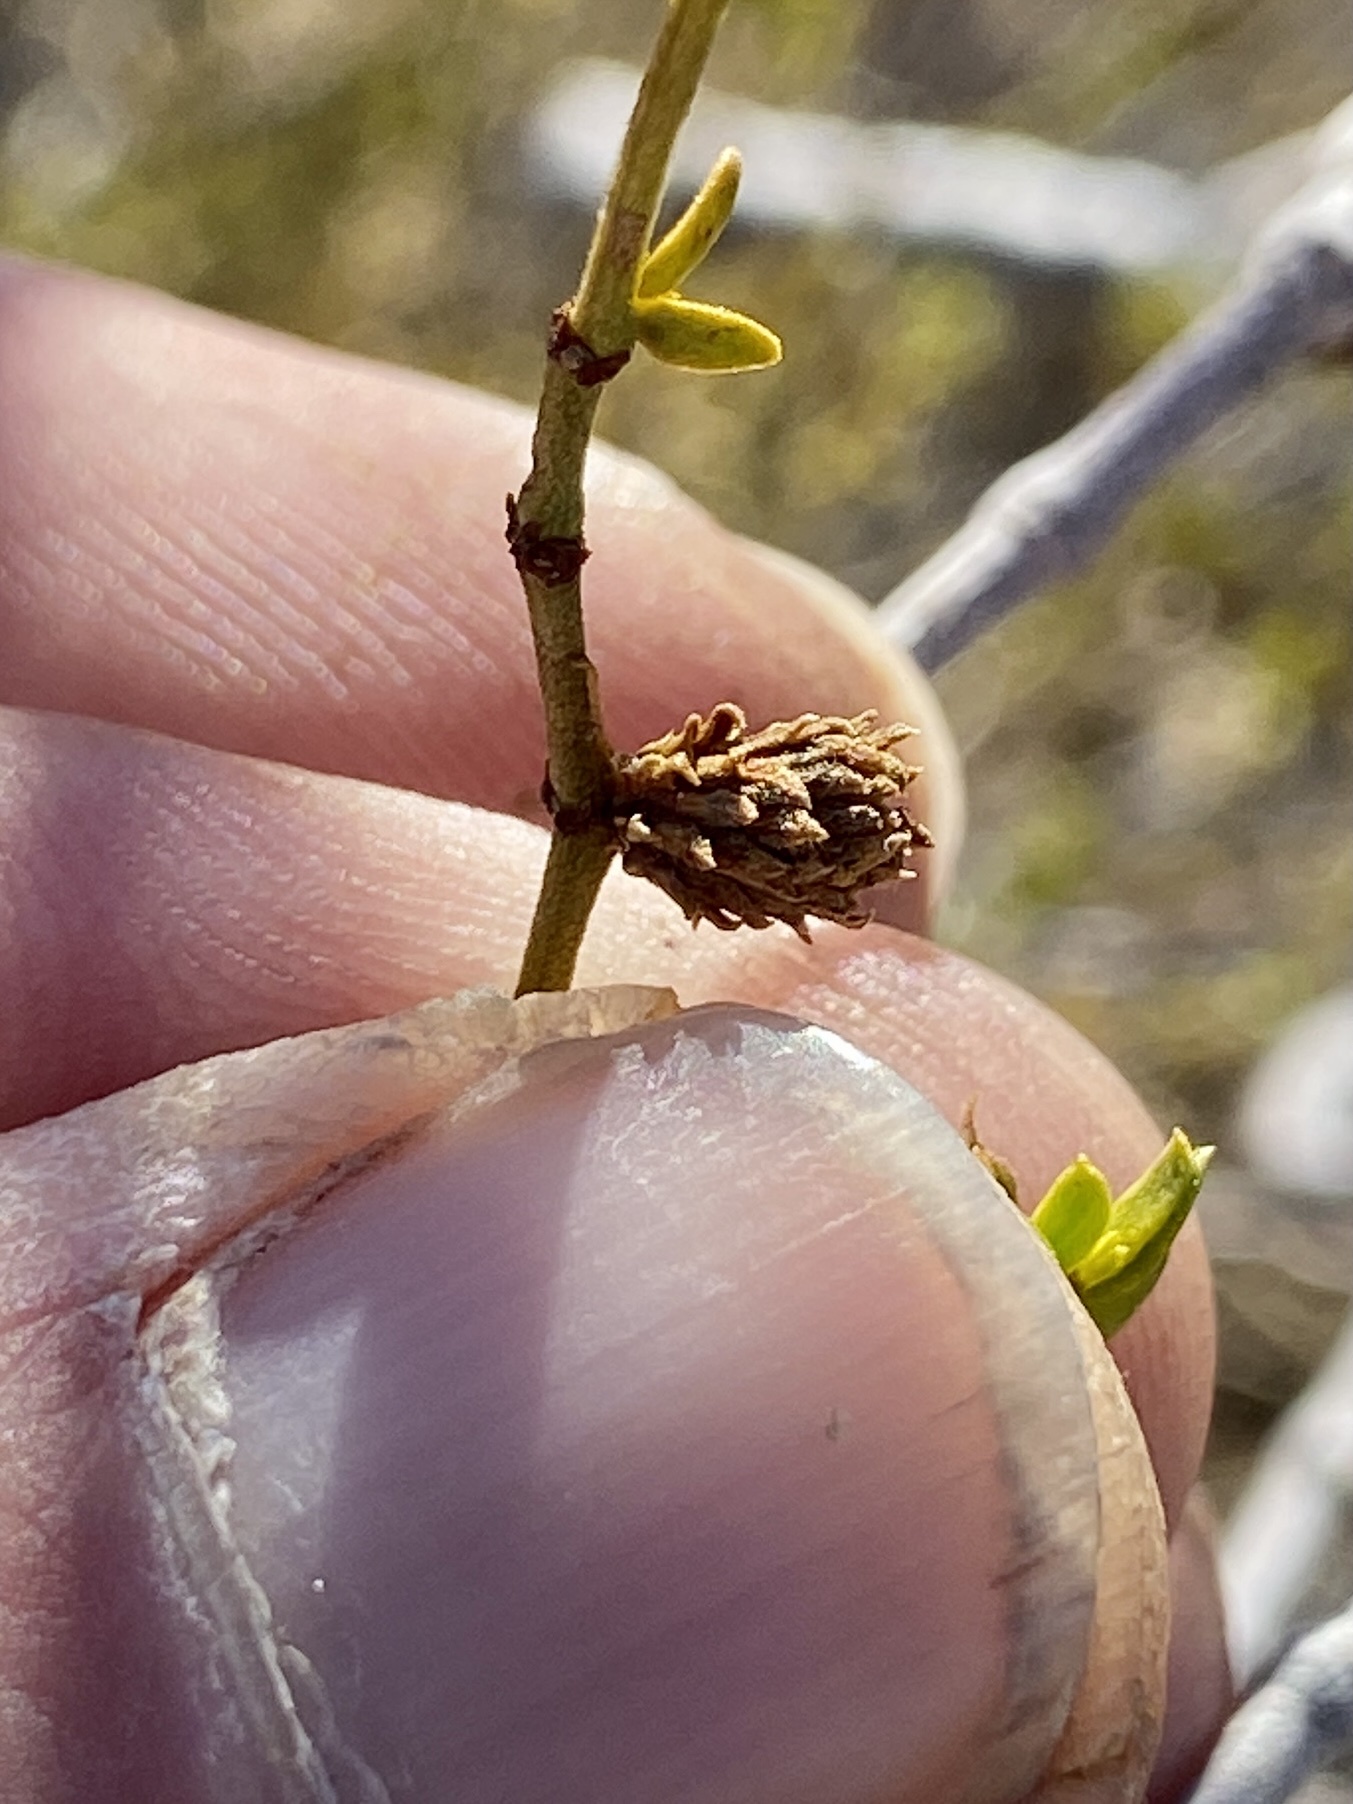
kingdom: Animalia
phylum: Arthropoda
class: Insecta
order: Diptera
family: Cecidomyiidae
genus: Asphondylia
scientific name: Asphondylia rosetta
